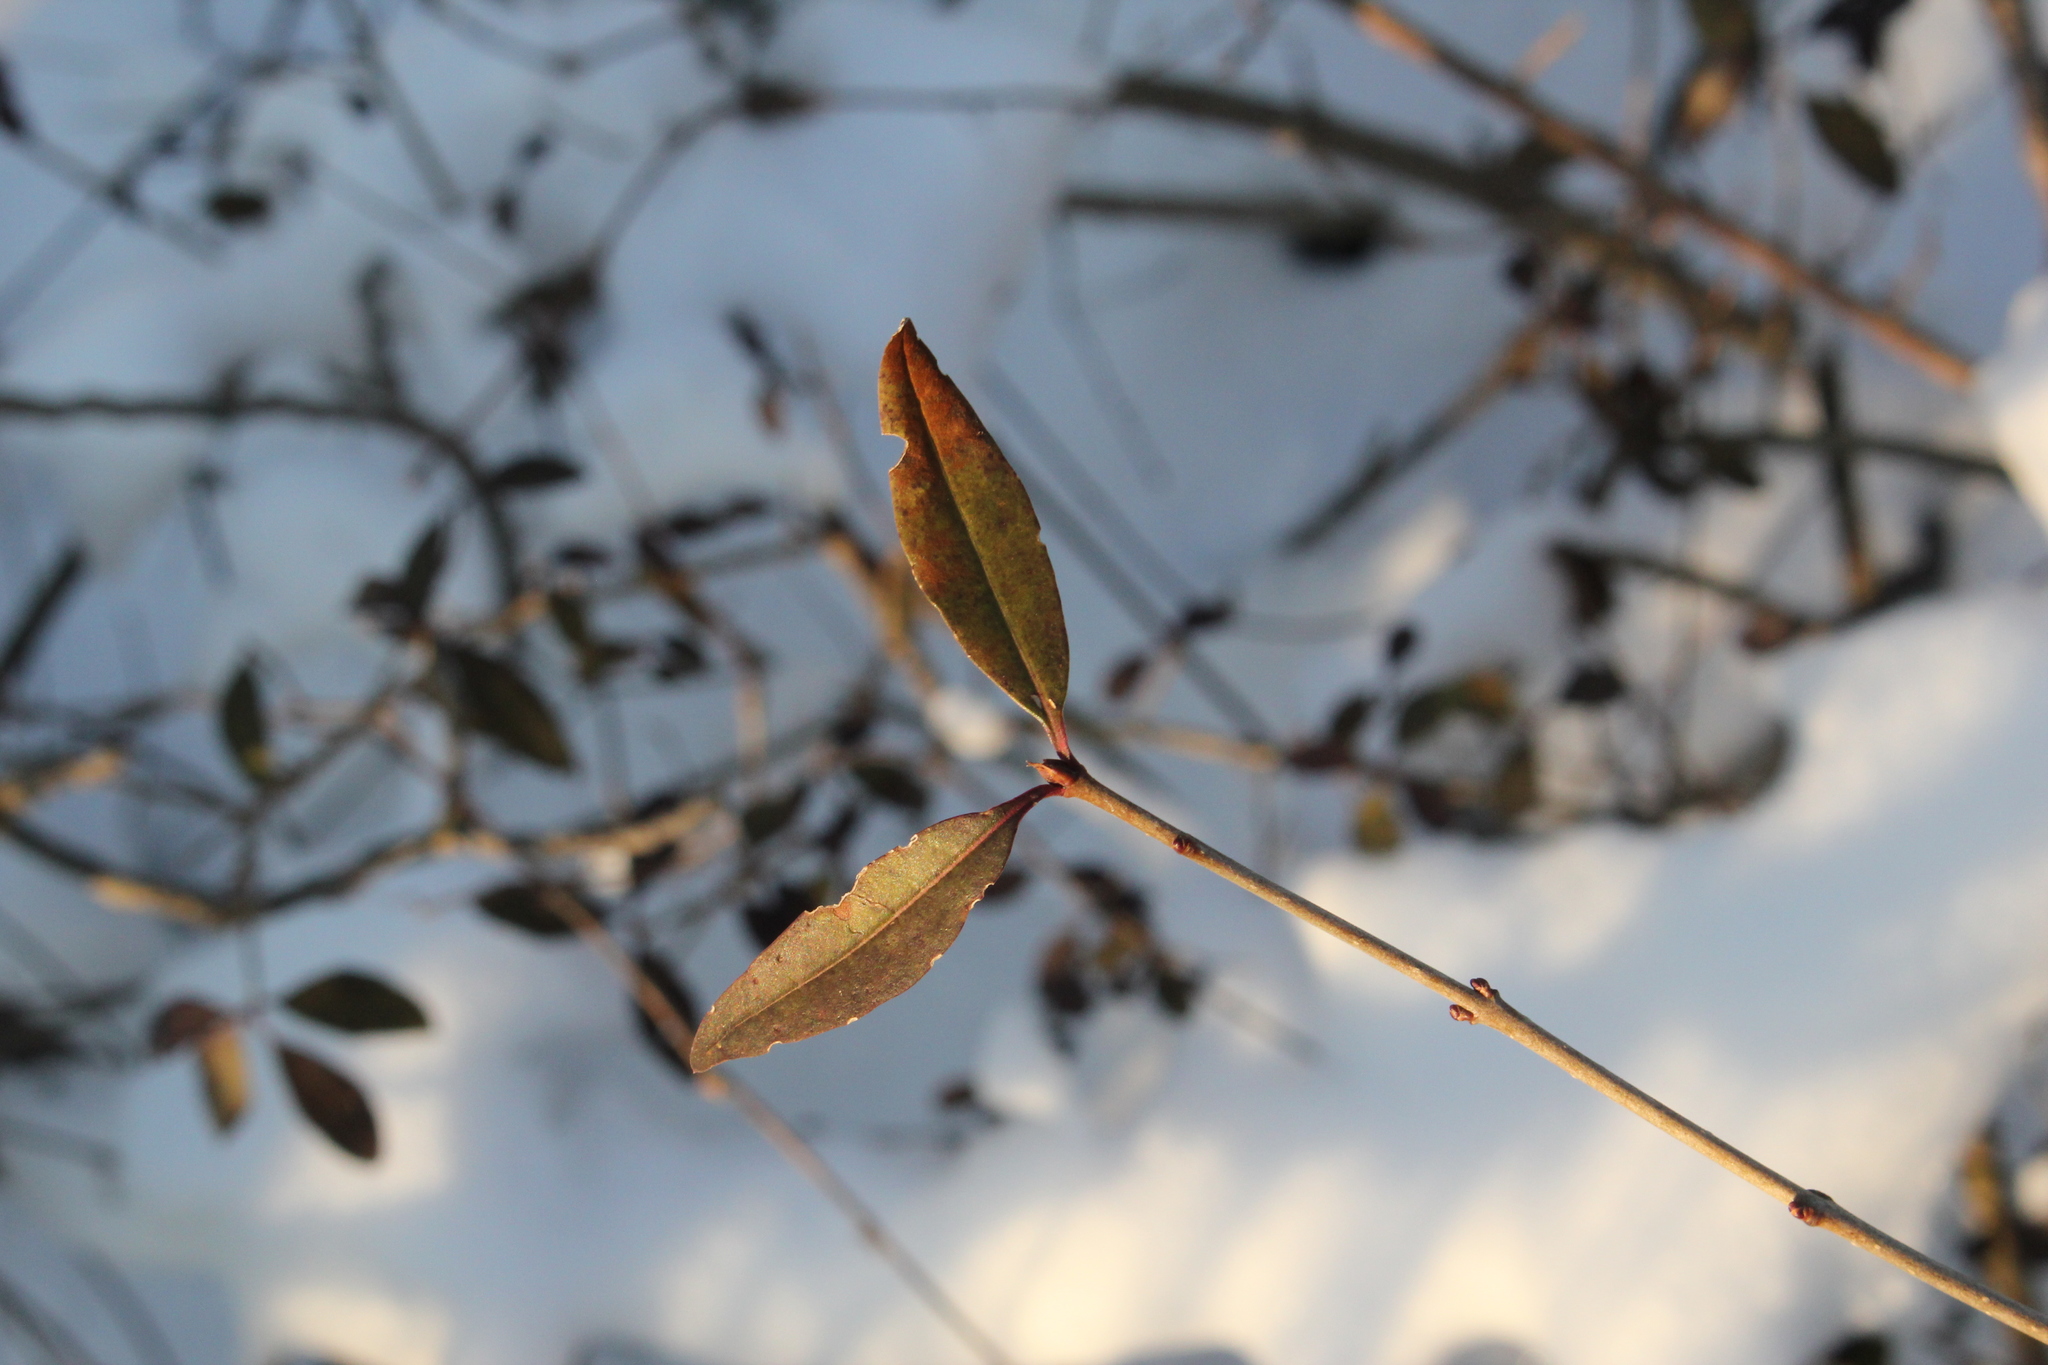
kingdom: Plantae
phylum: Tracheophyta
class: Magnoliopsida
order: Lamiales
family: Oleaceae
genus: Ligustrum
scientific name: Ligustrum vulgare
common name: Wild privet
